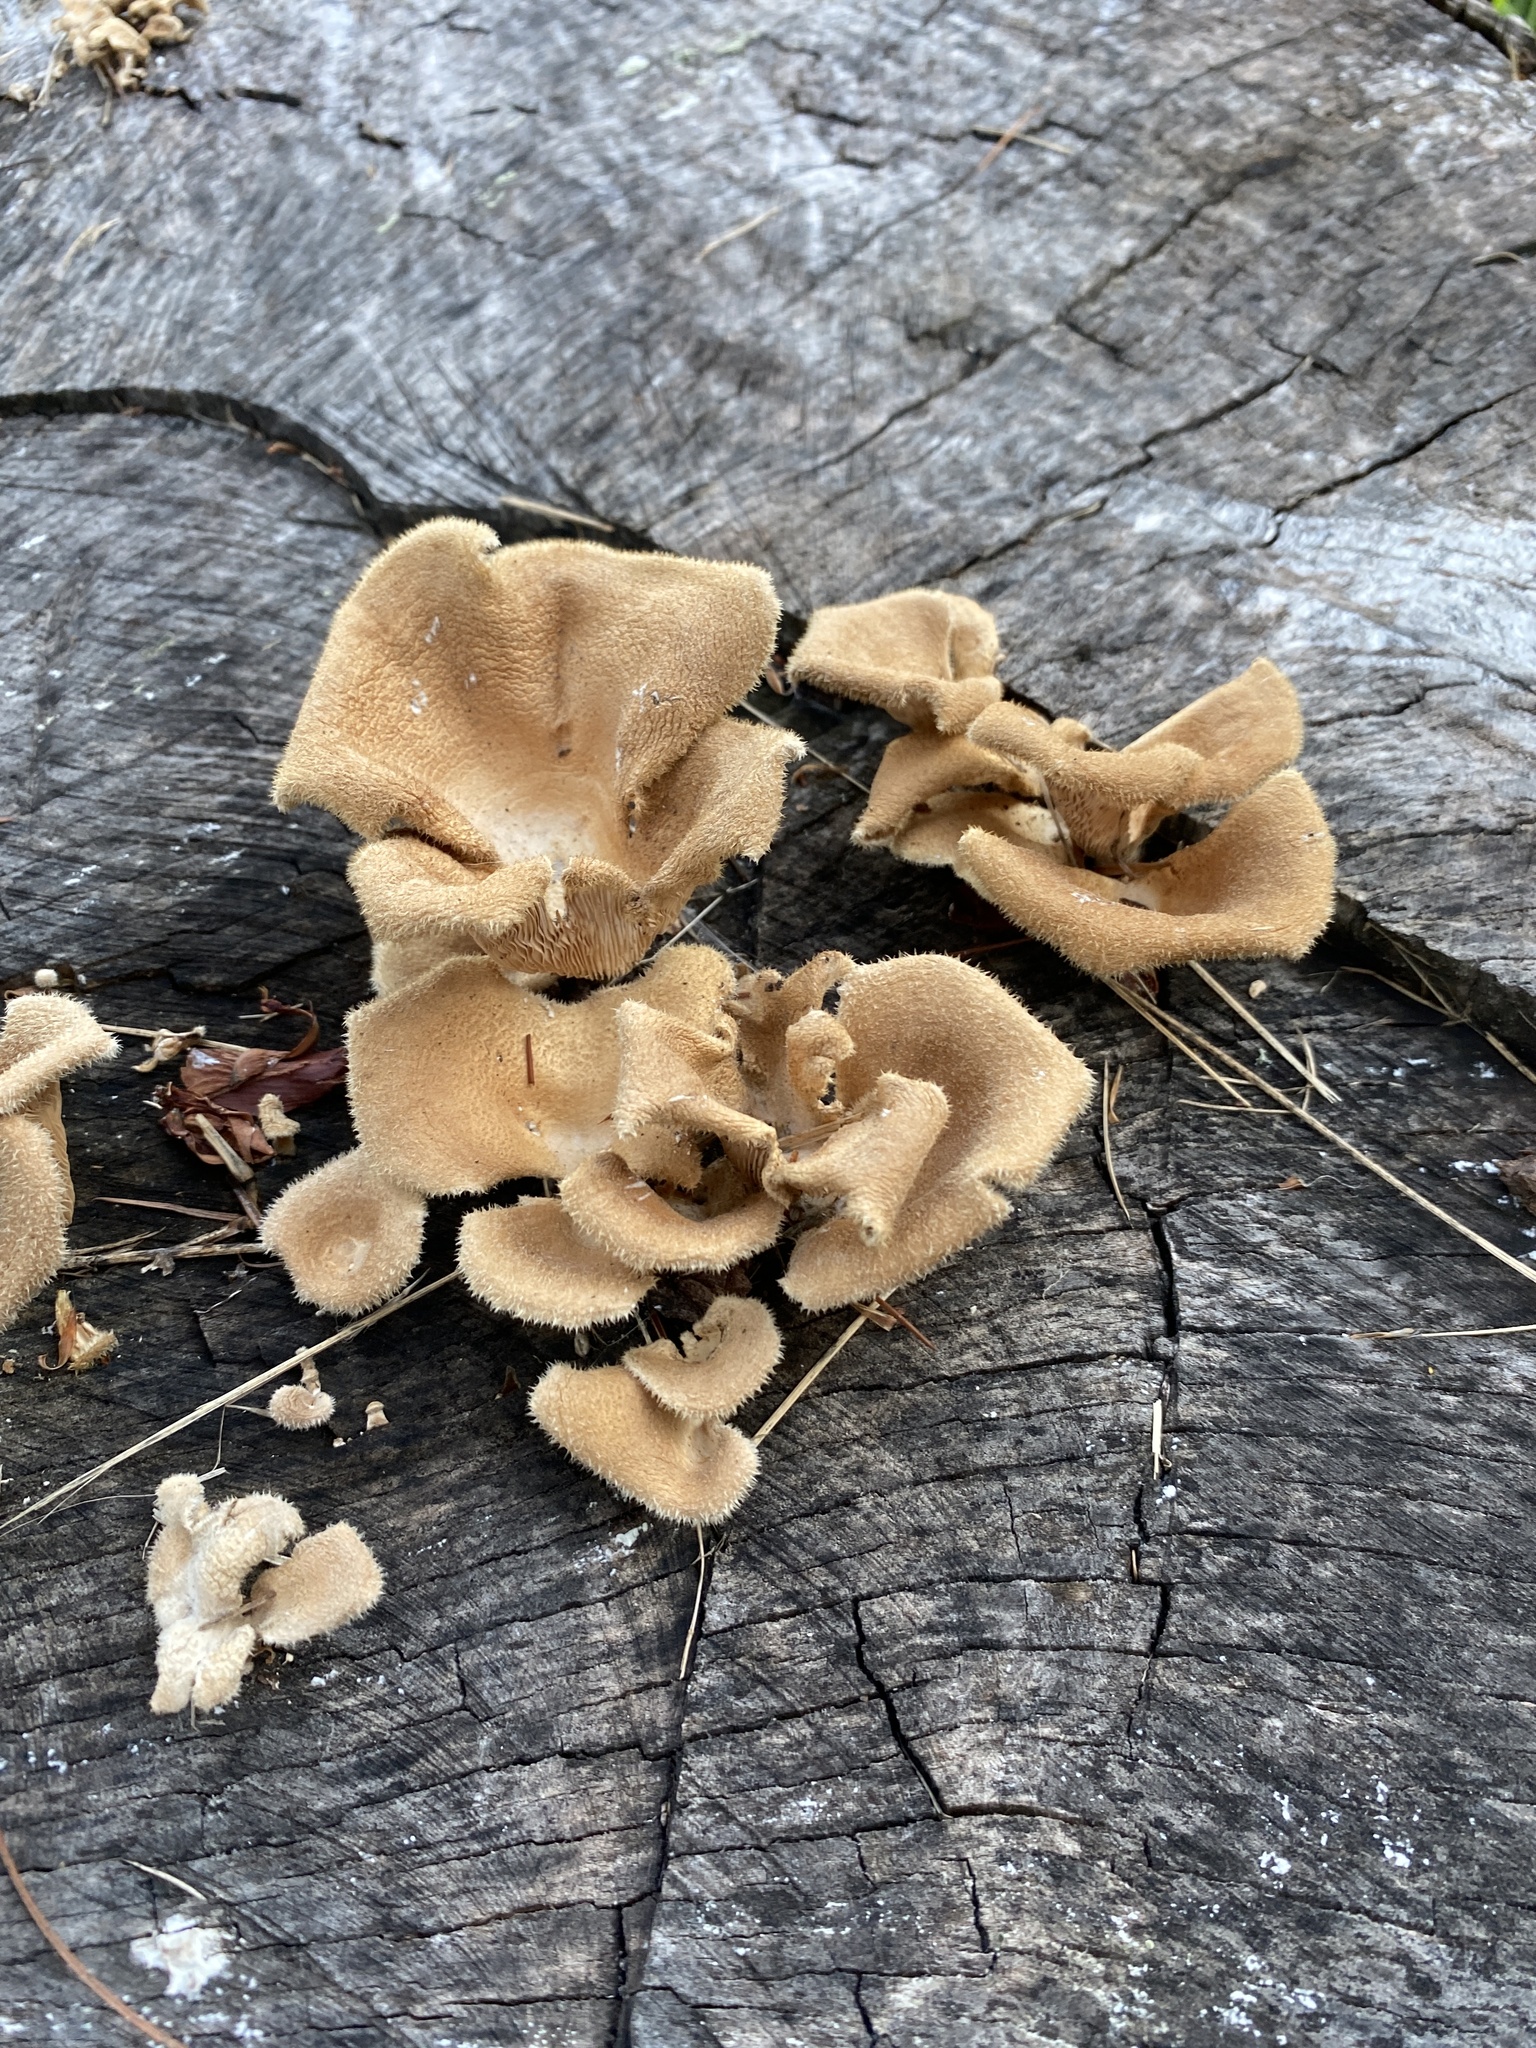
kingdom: Fungi
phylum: Basidiomycota
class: Agaricomycetes
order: Polyporales
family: Panaceae
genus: Panus
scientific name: Panus neostrigosus
